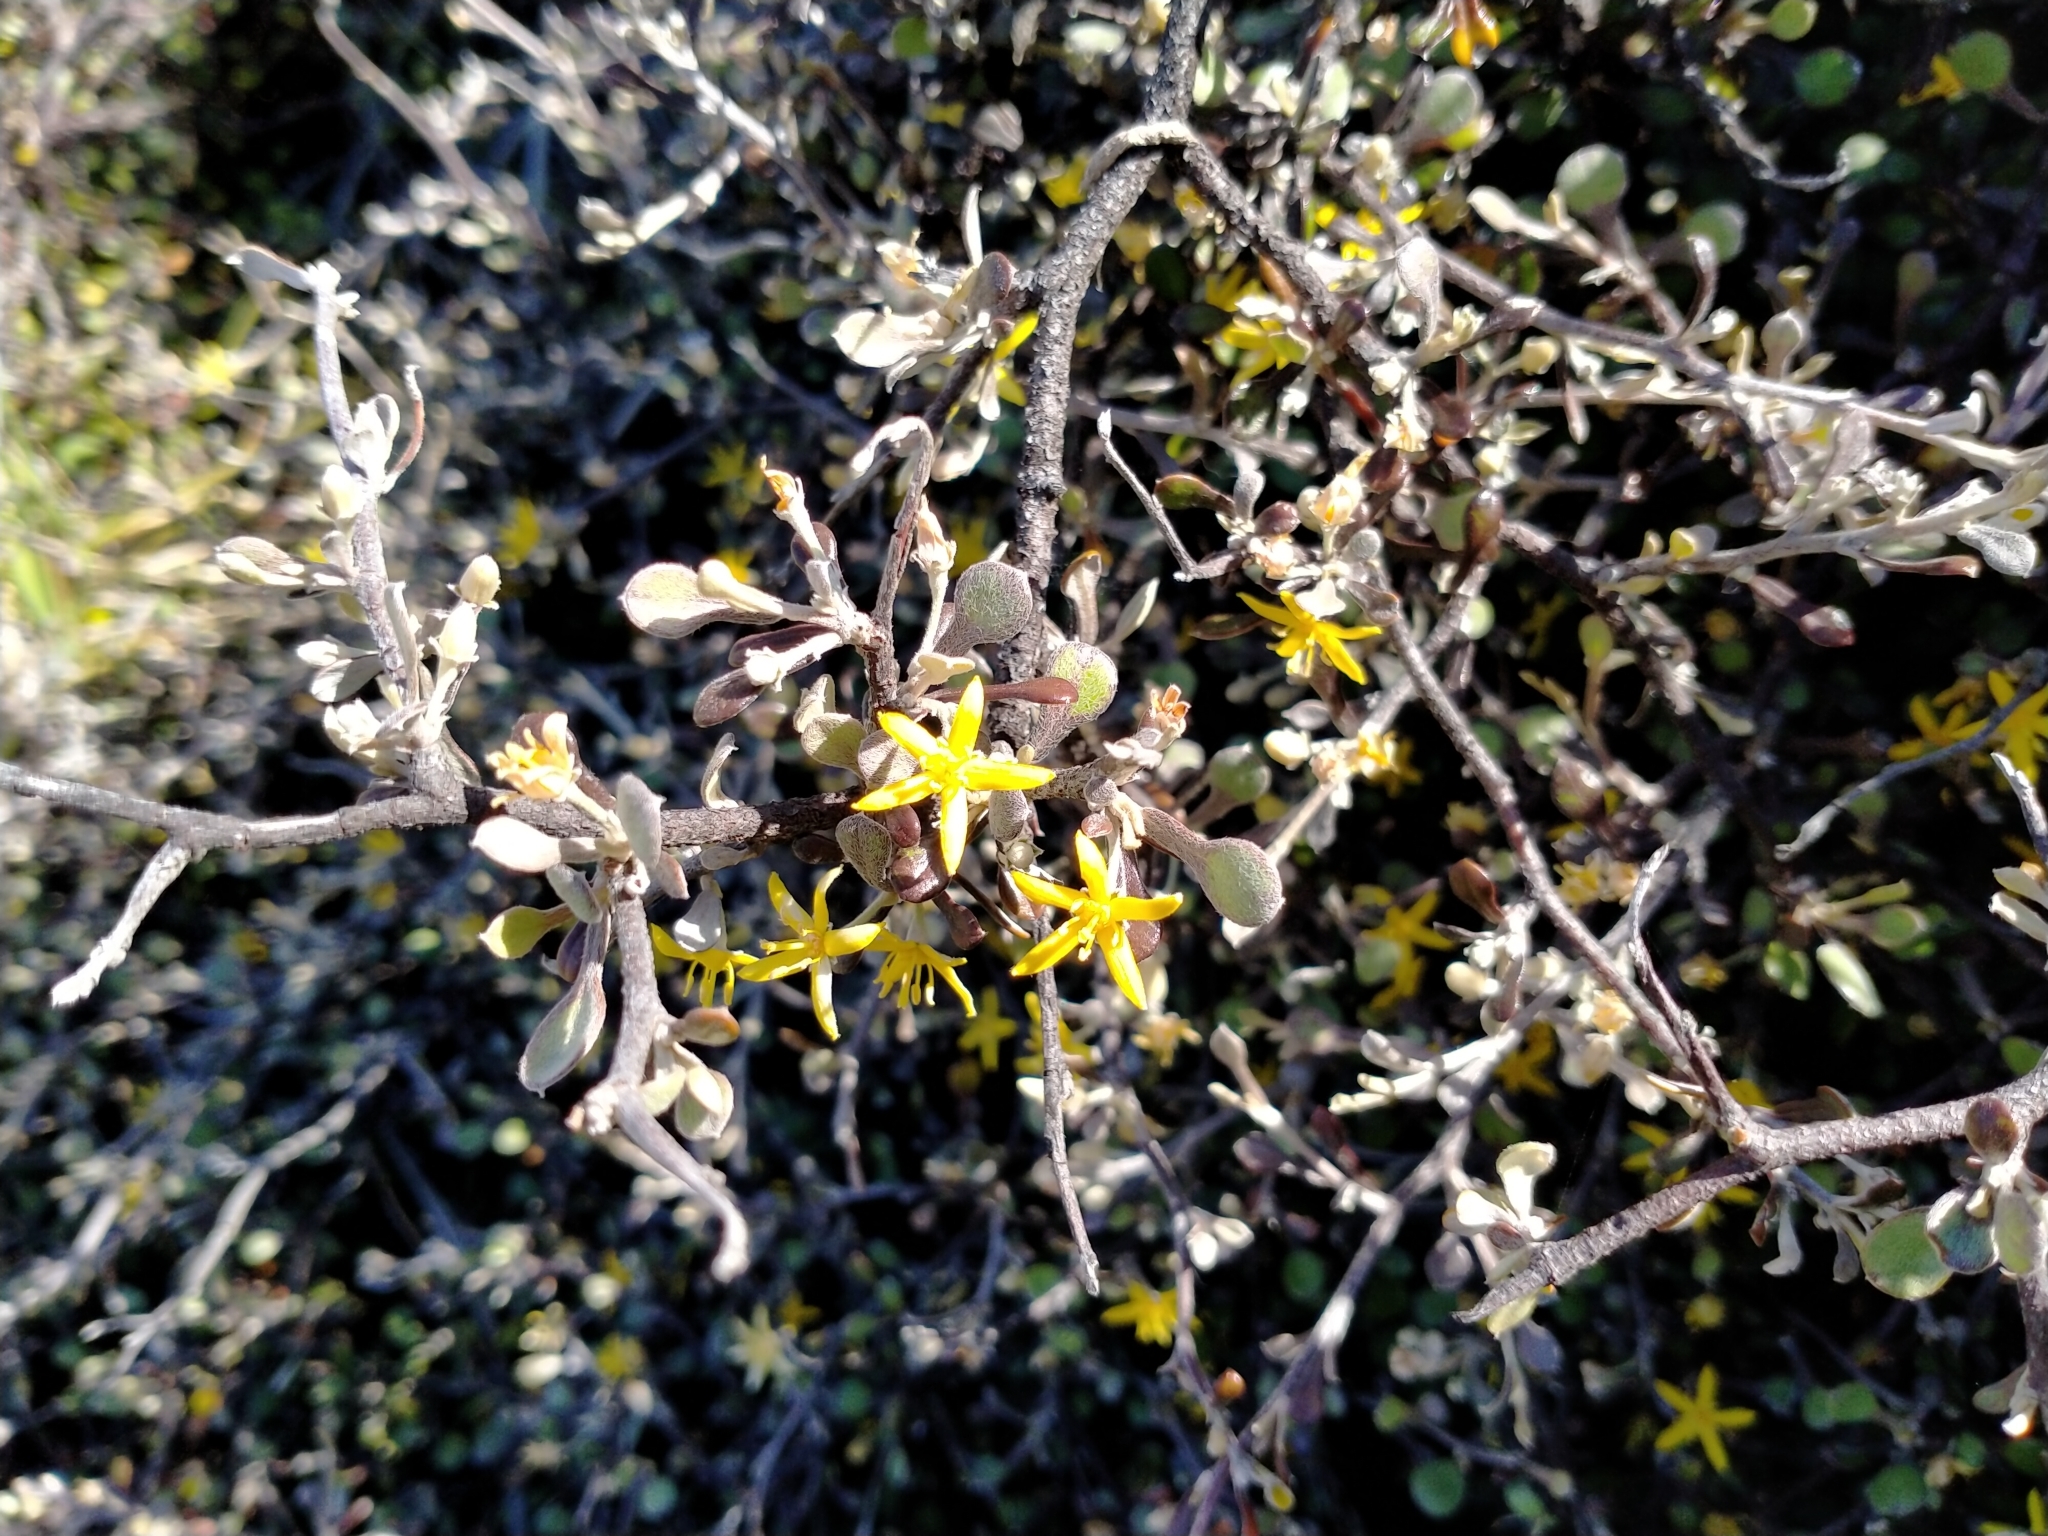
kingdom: Plantae
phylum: Tracheophyta
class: Magnoliopsida
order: Asterales
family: Argophyllaceae
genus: Corokia
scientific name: Corokia cotoneaster
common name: Wire nettingbush
